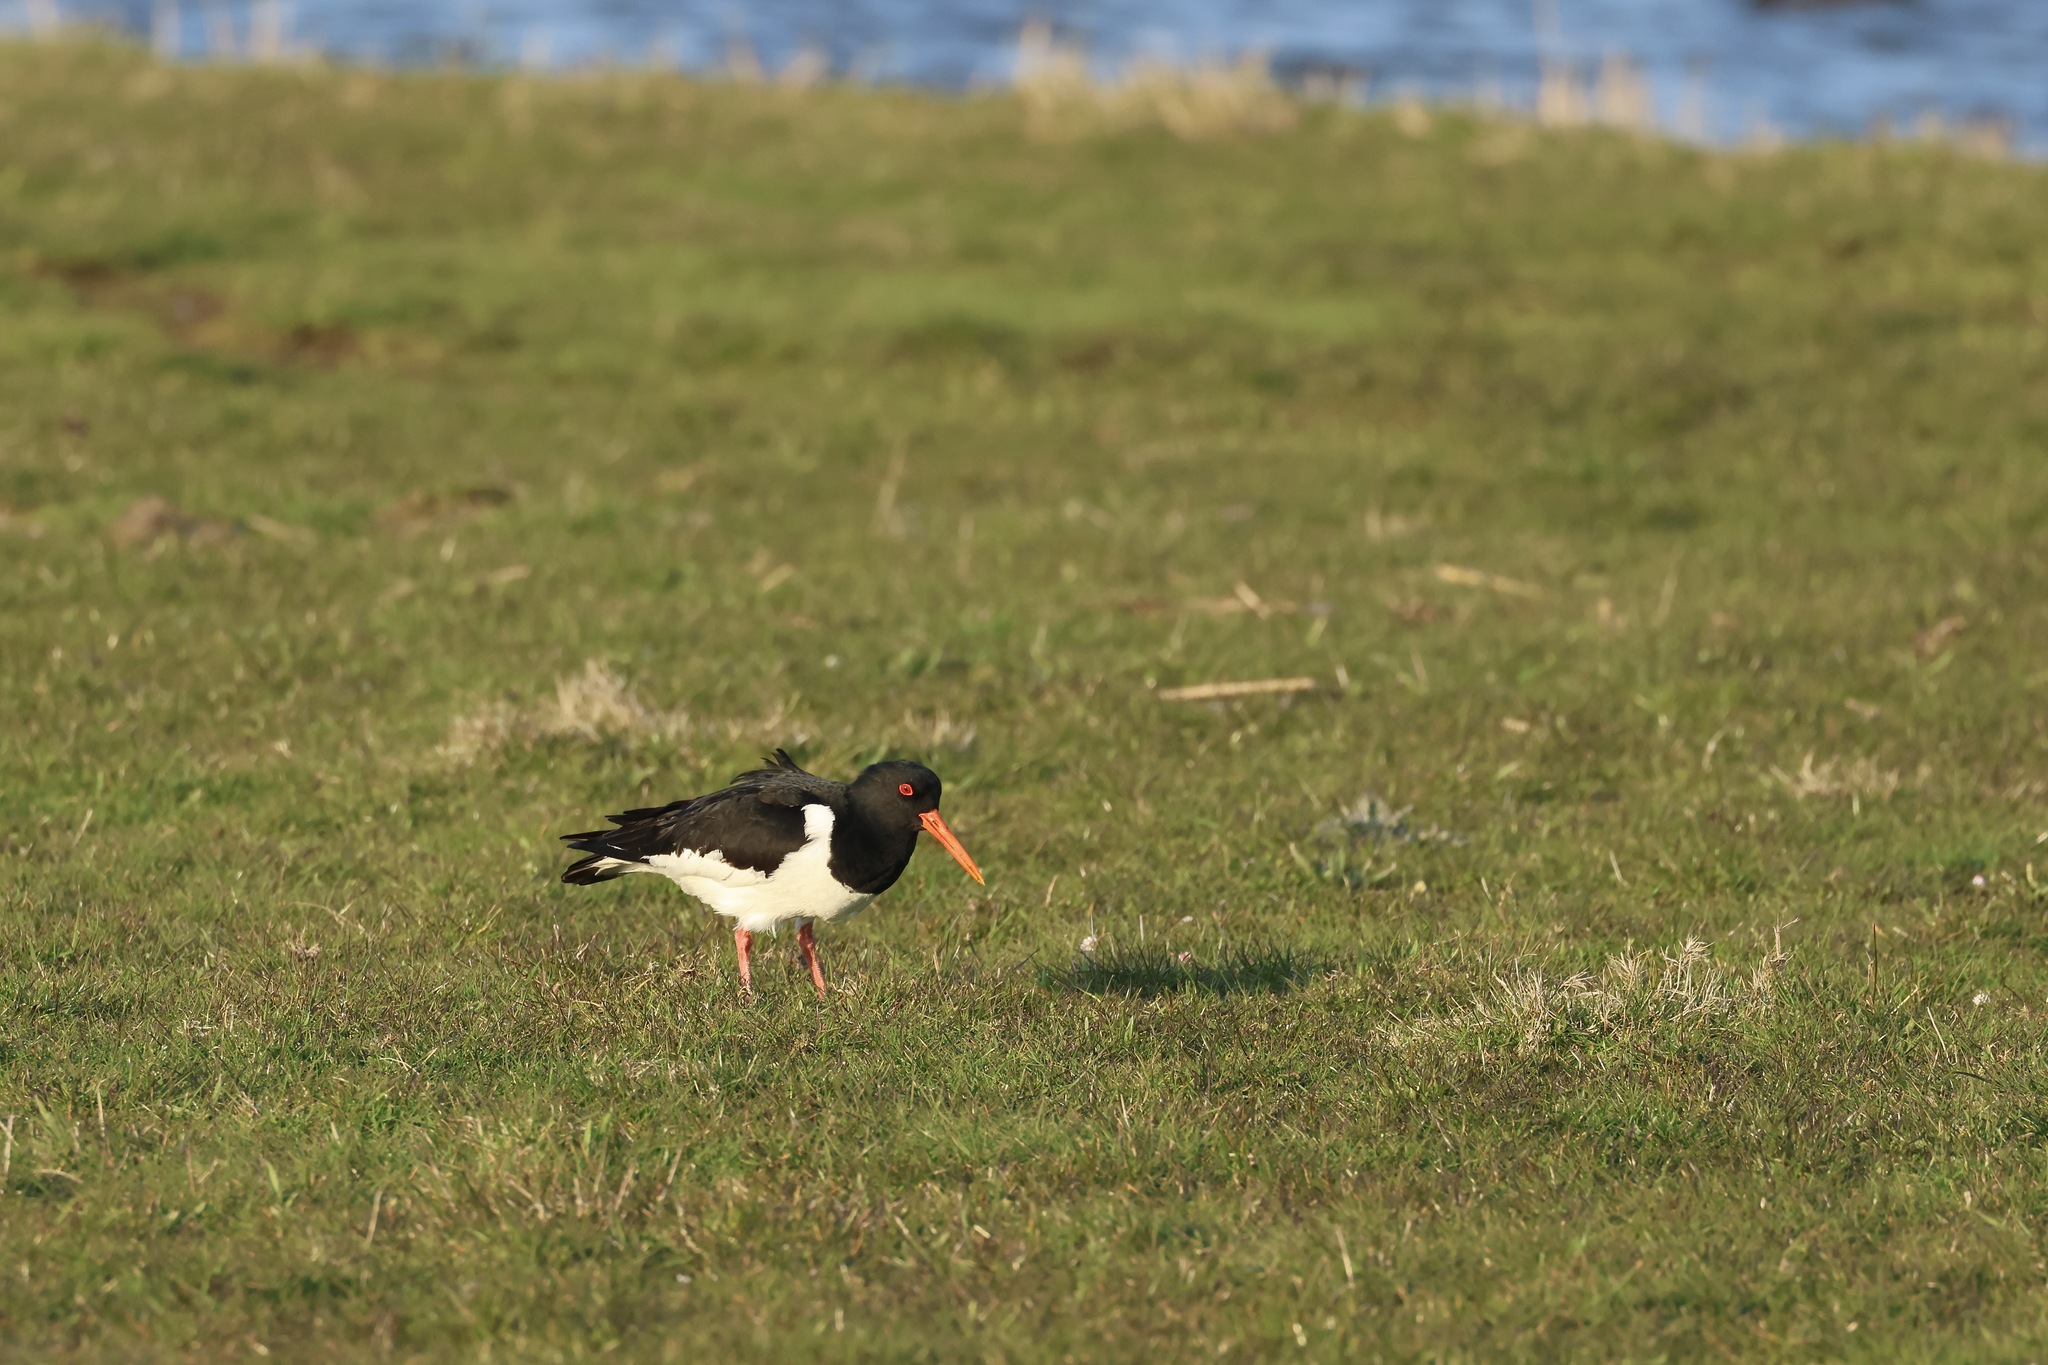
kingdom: Animalia
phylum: Chordata
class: Aves
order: Charadriiformes
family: Haematopodidae
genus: Haematopus
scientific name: Haematopus ostralegus
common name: Eurasian oystercatcher
